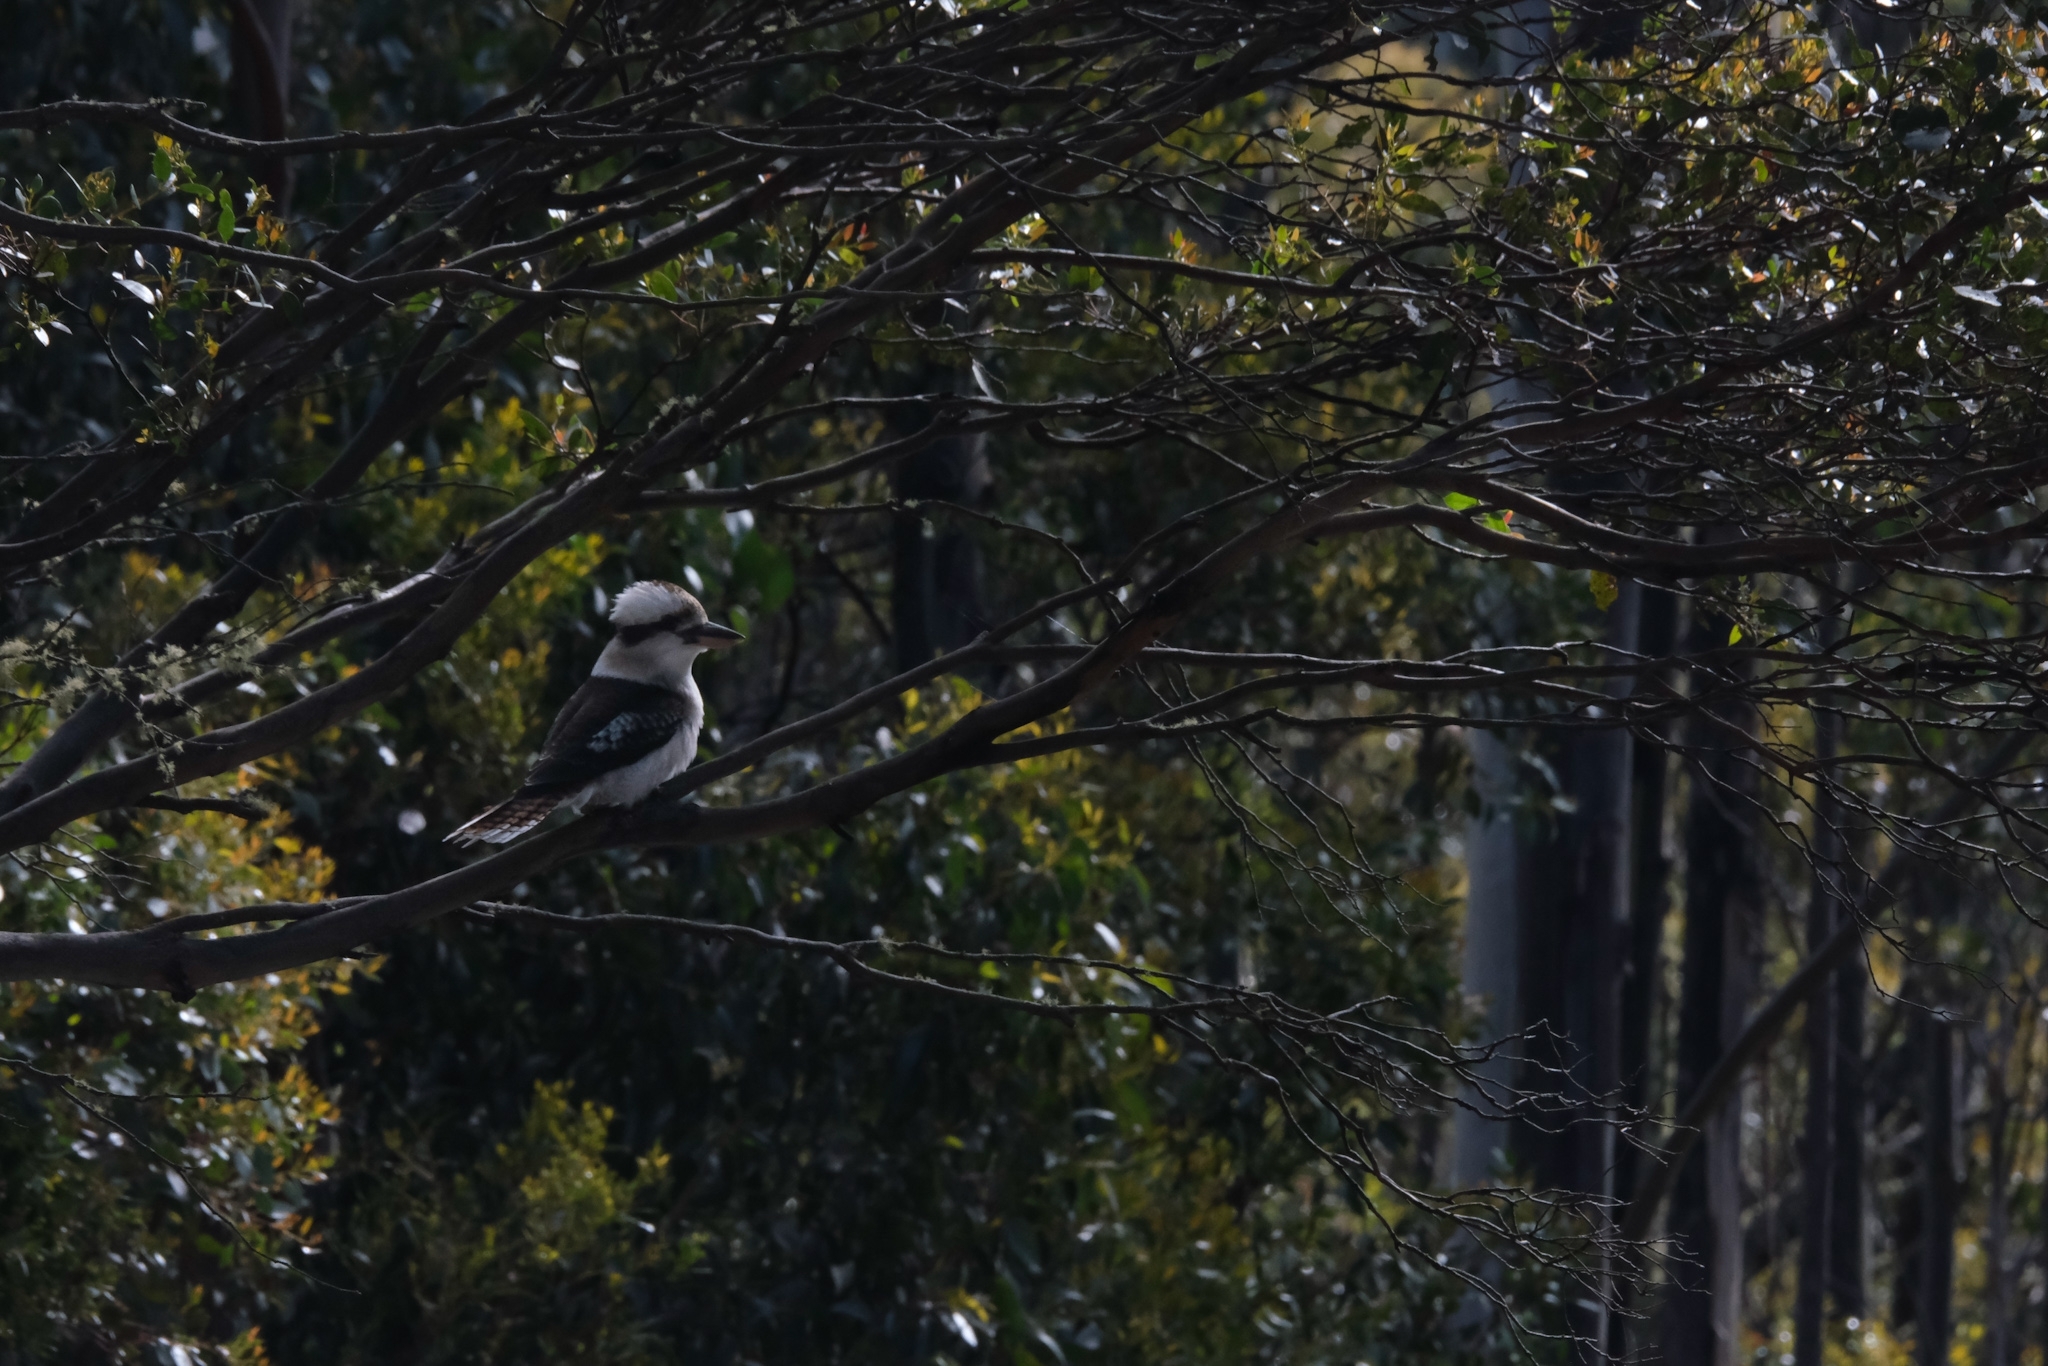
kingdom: Animalia
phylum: Chordata
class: Aves
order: Coraciiformes
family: Alcedinidae
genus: Dacelo
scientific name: Dacelo novaeguineae
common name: Laughing kookaburra
